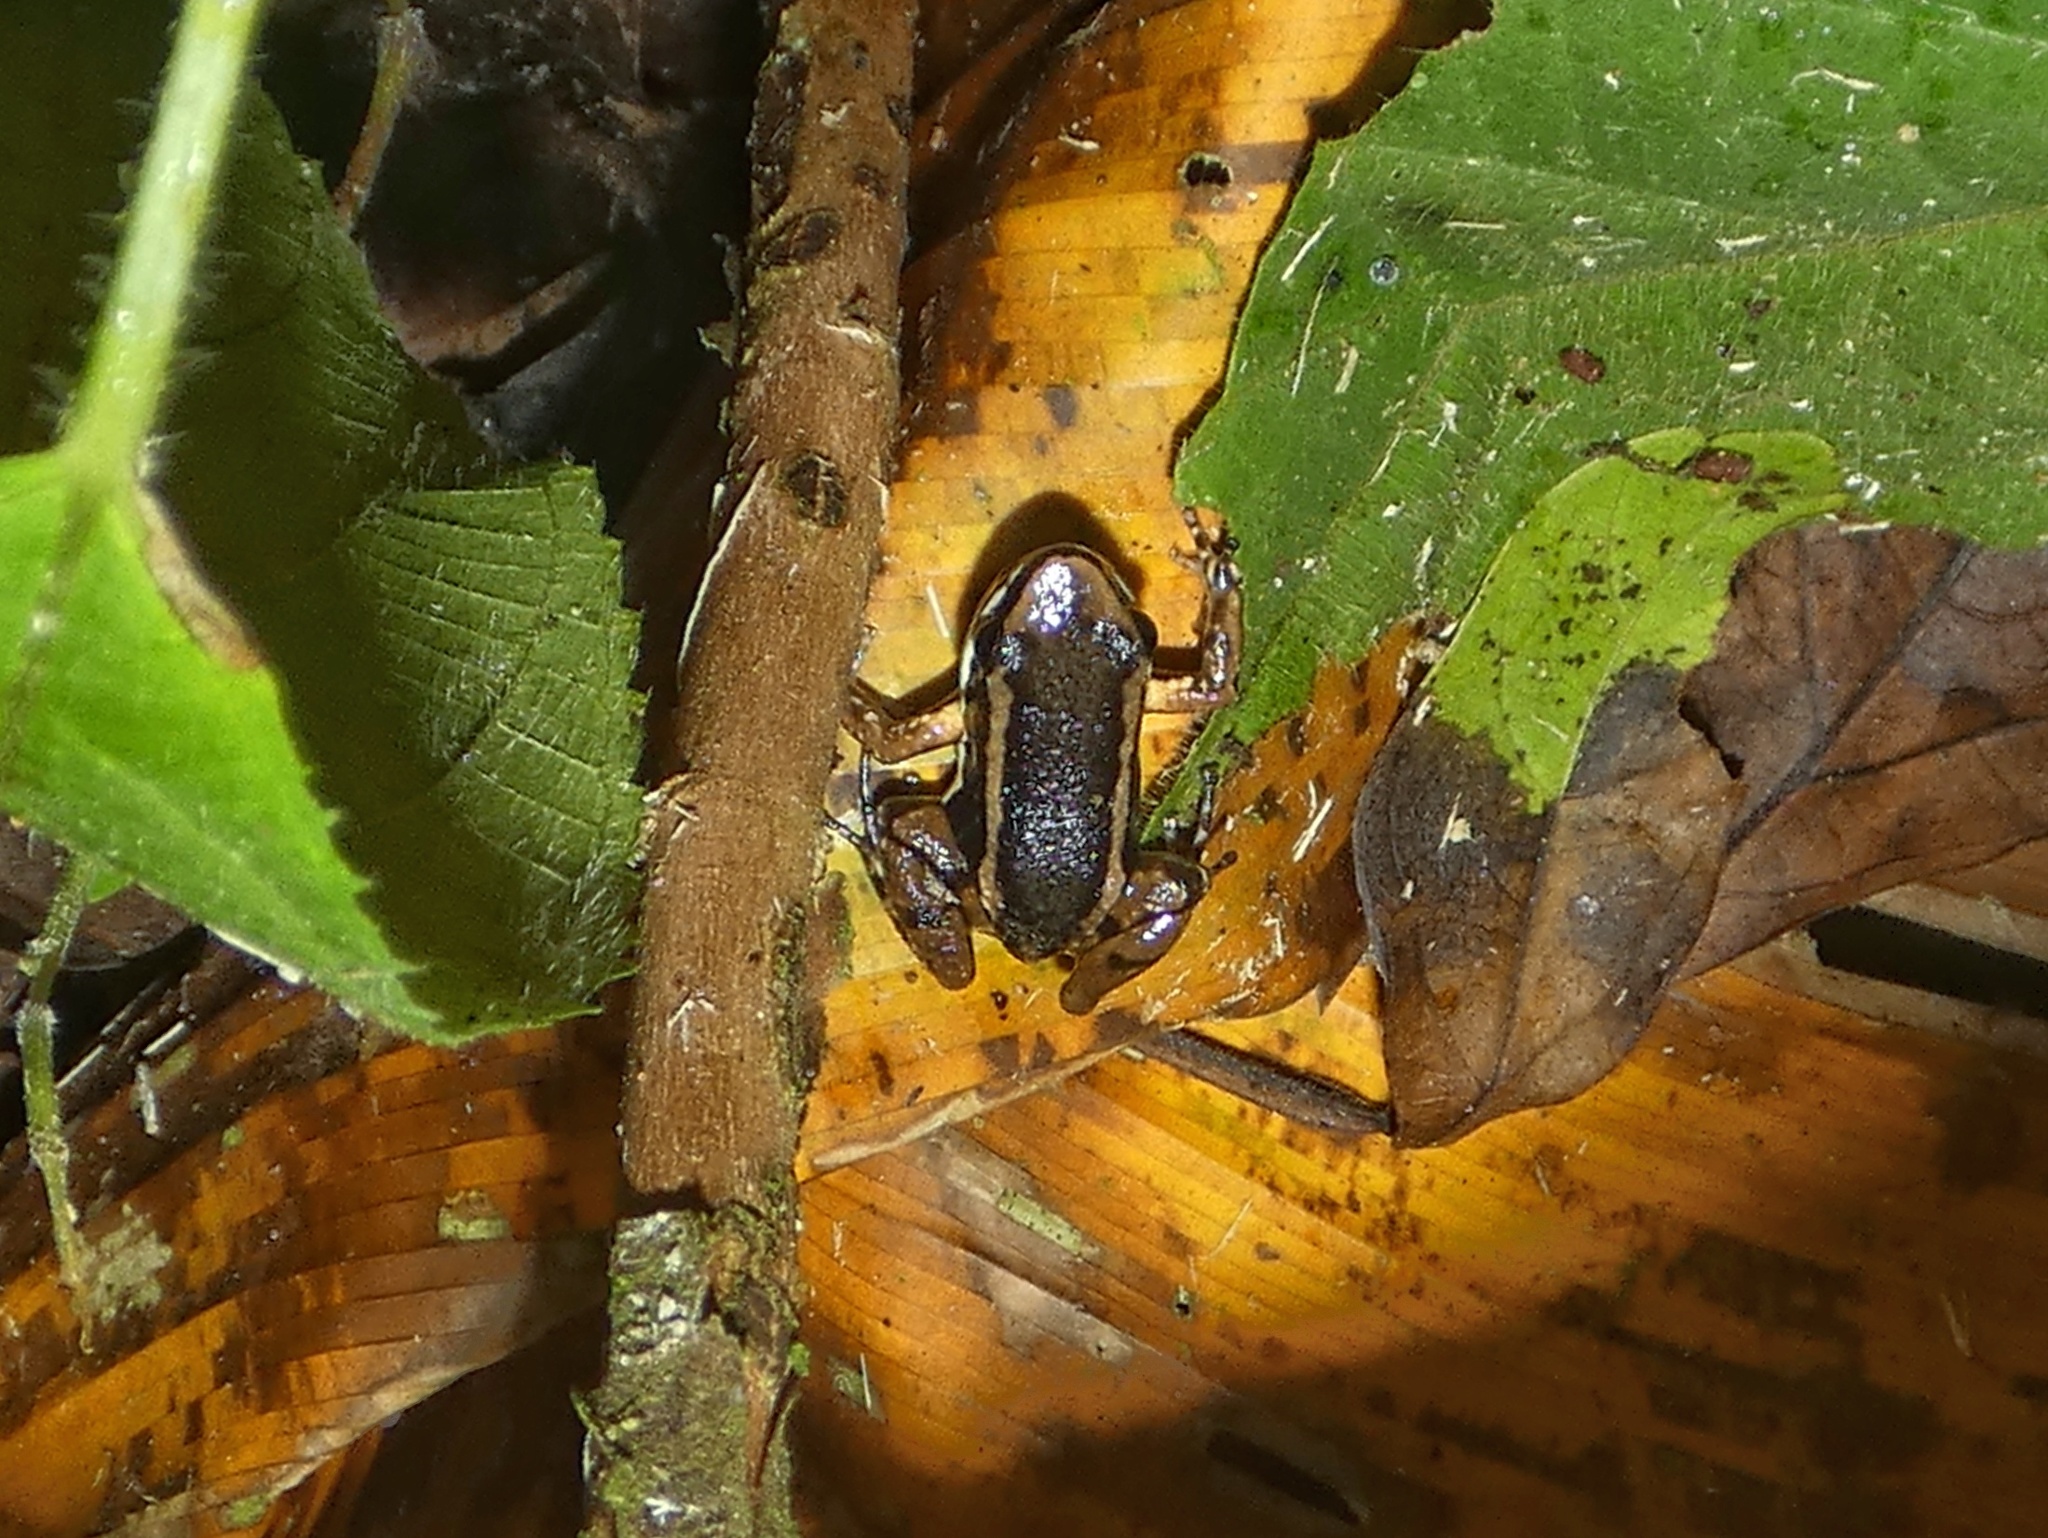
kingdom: Animalia
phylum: Chordata
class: Amphibia
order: Anura
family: Aromobatidae
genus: Allobates
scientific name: Allobates talamancae
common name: Talamanca rocket frog
